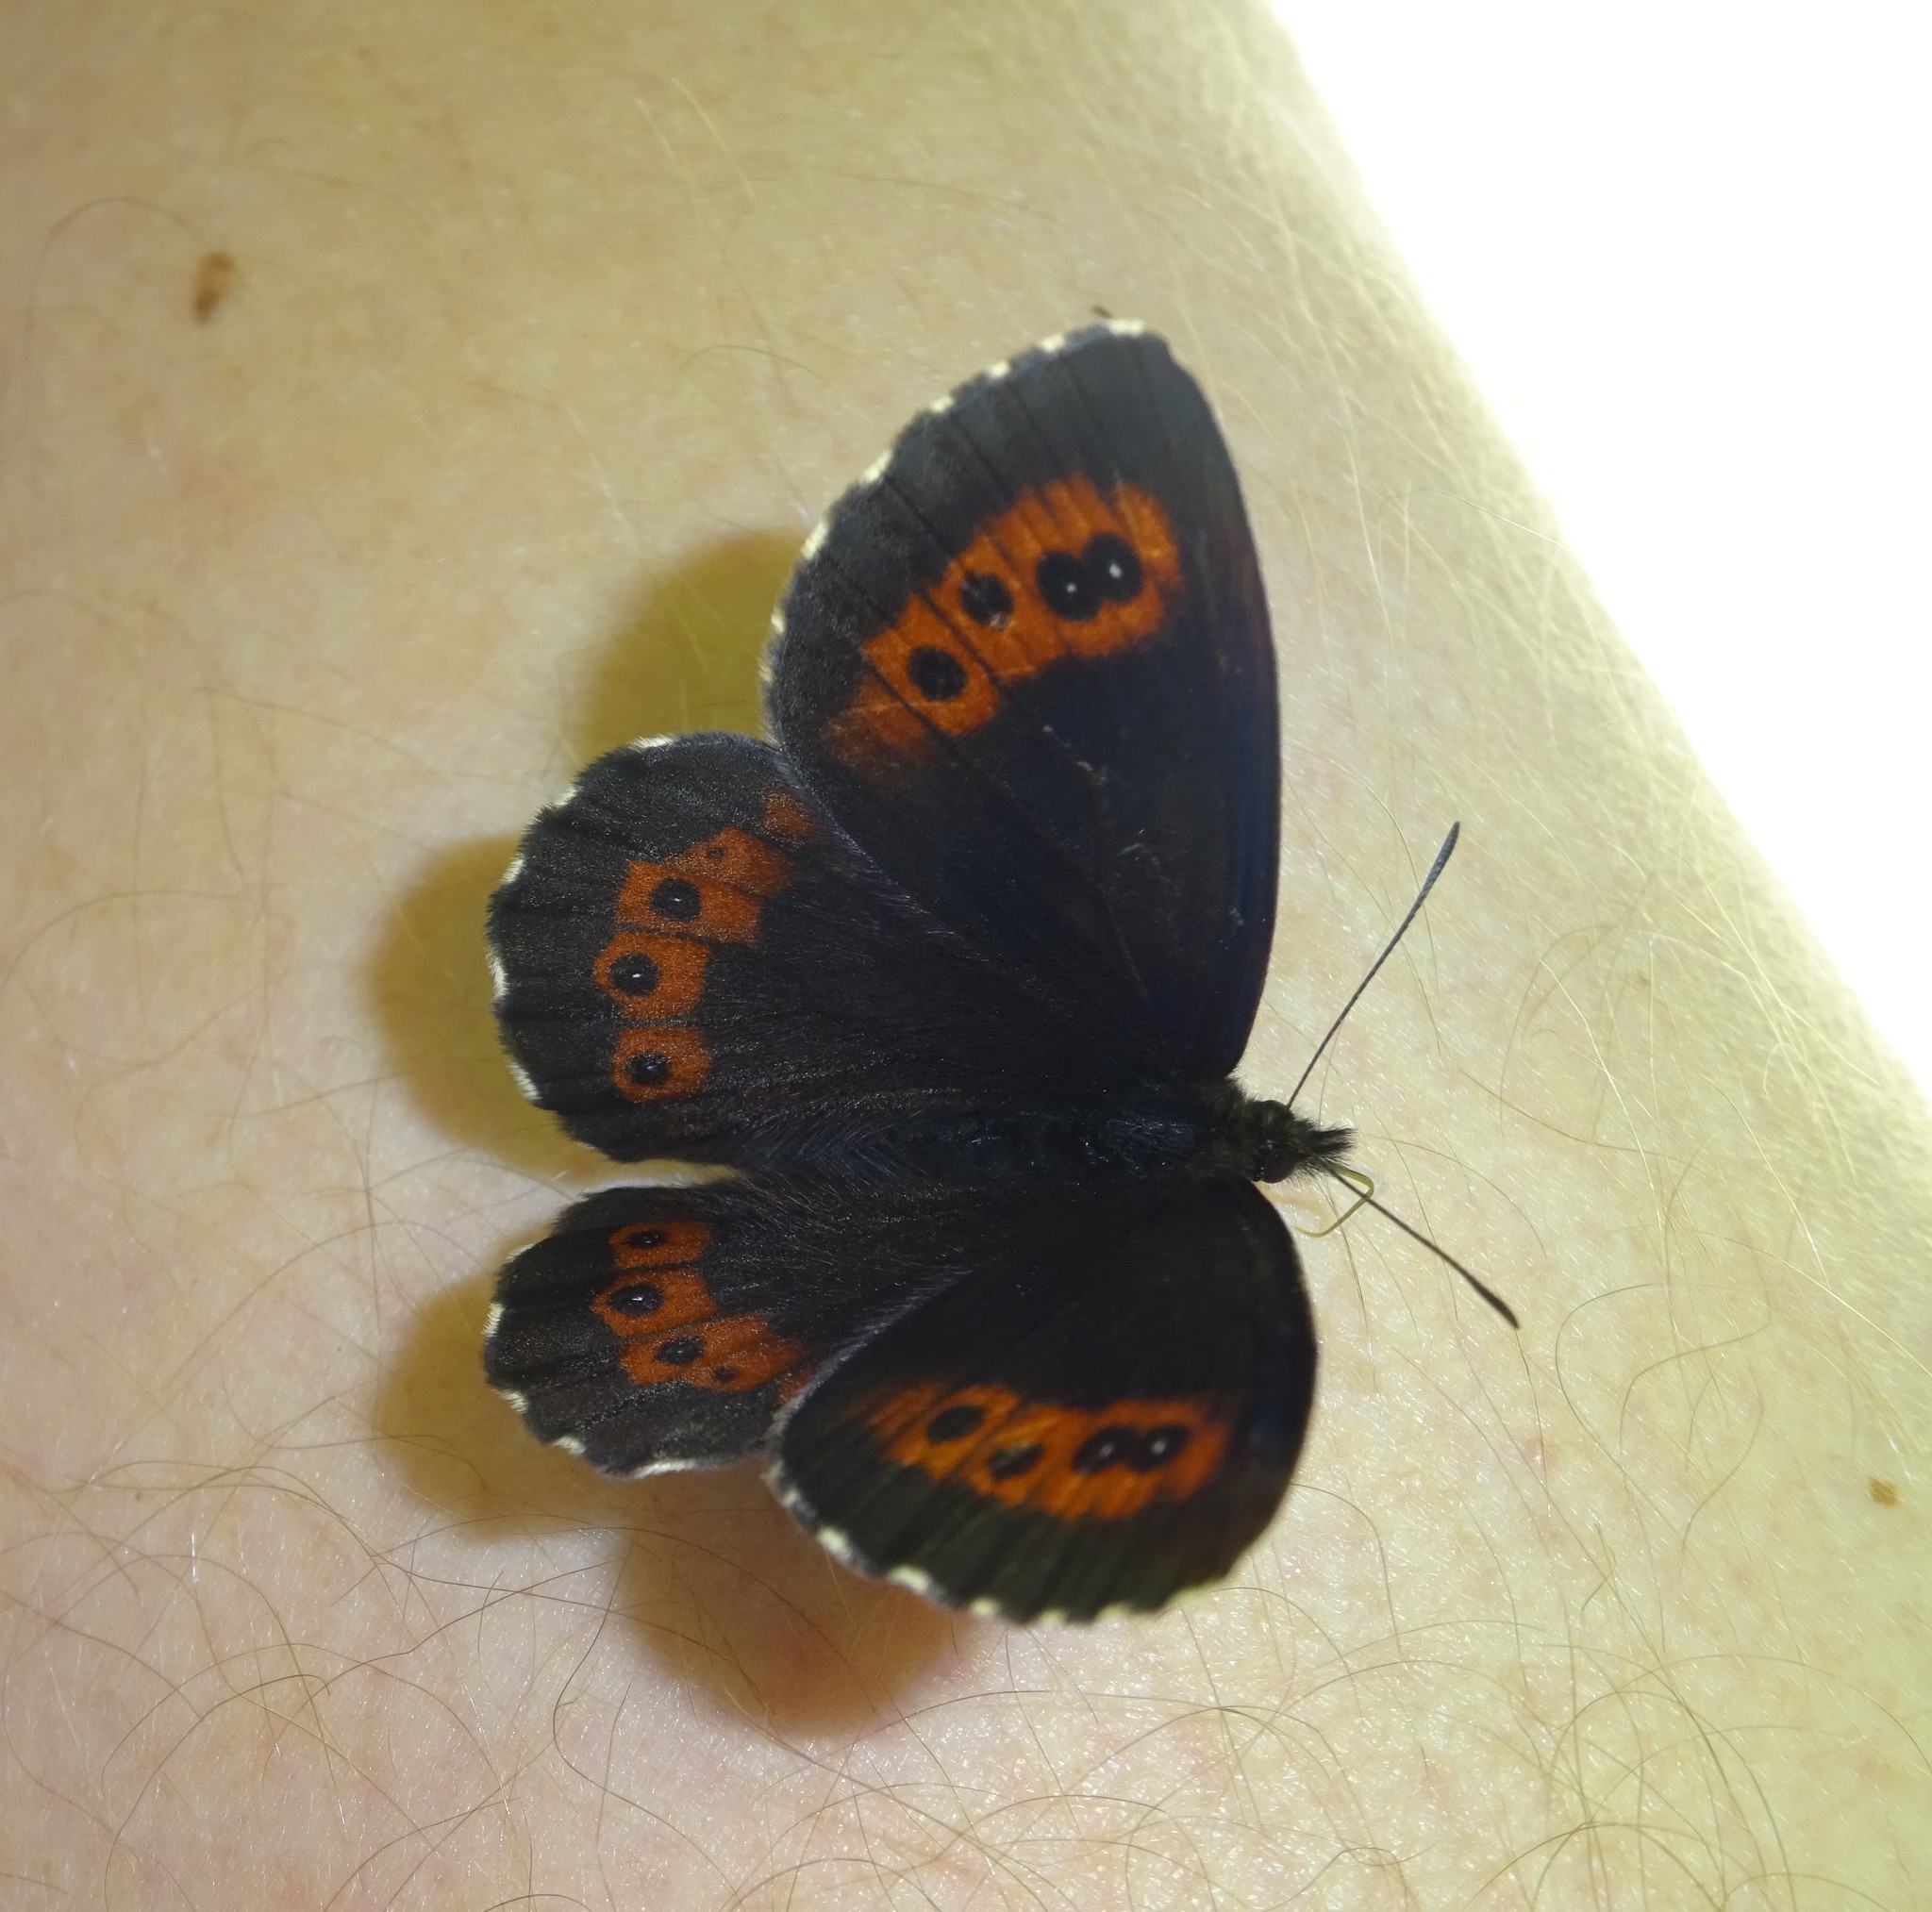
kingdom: Animalia
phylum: Arthropoda
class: Insecta
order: Lepidoptera
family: Nymphalidae
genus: Erebia
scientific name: Erebia ligea
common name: Arran brown
